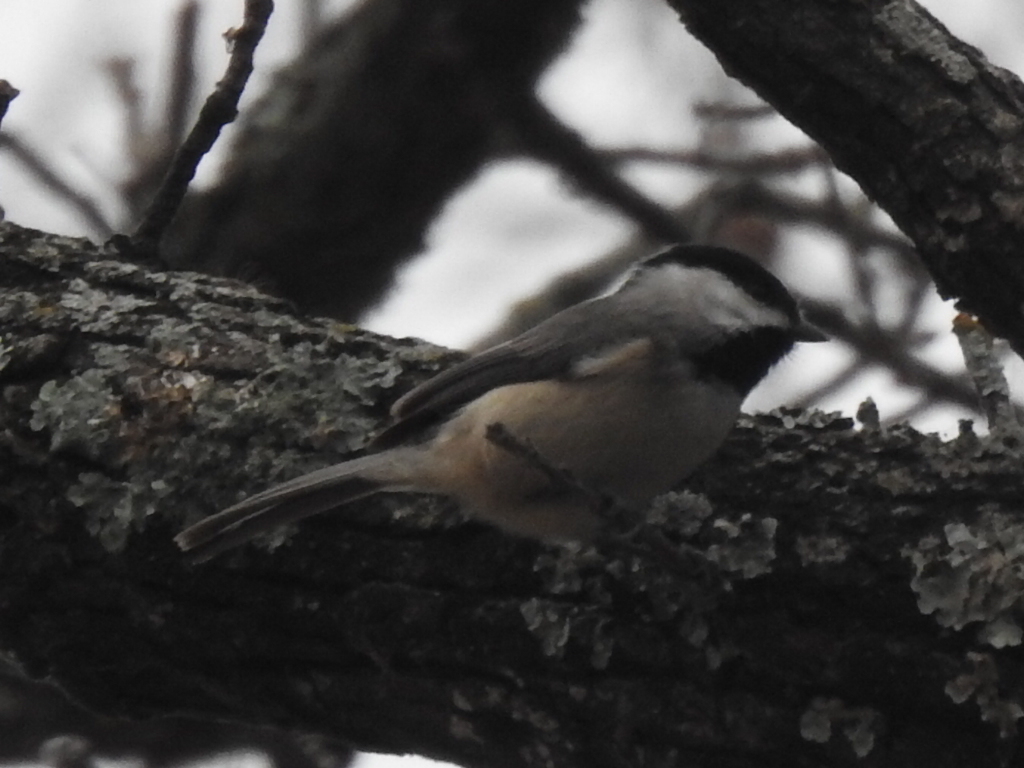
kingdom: Animalia
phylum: Chordata
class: Aves
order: Passeriformes
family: Paridae
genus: Poecile
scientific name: Poecile carolinensis
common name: Carolina chickadee
